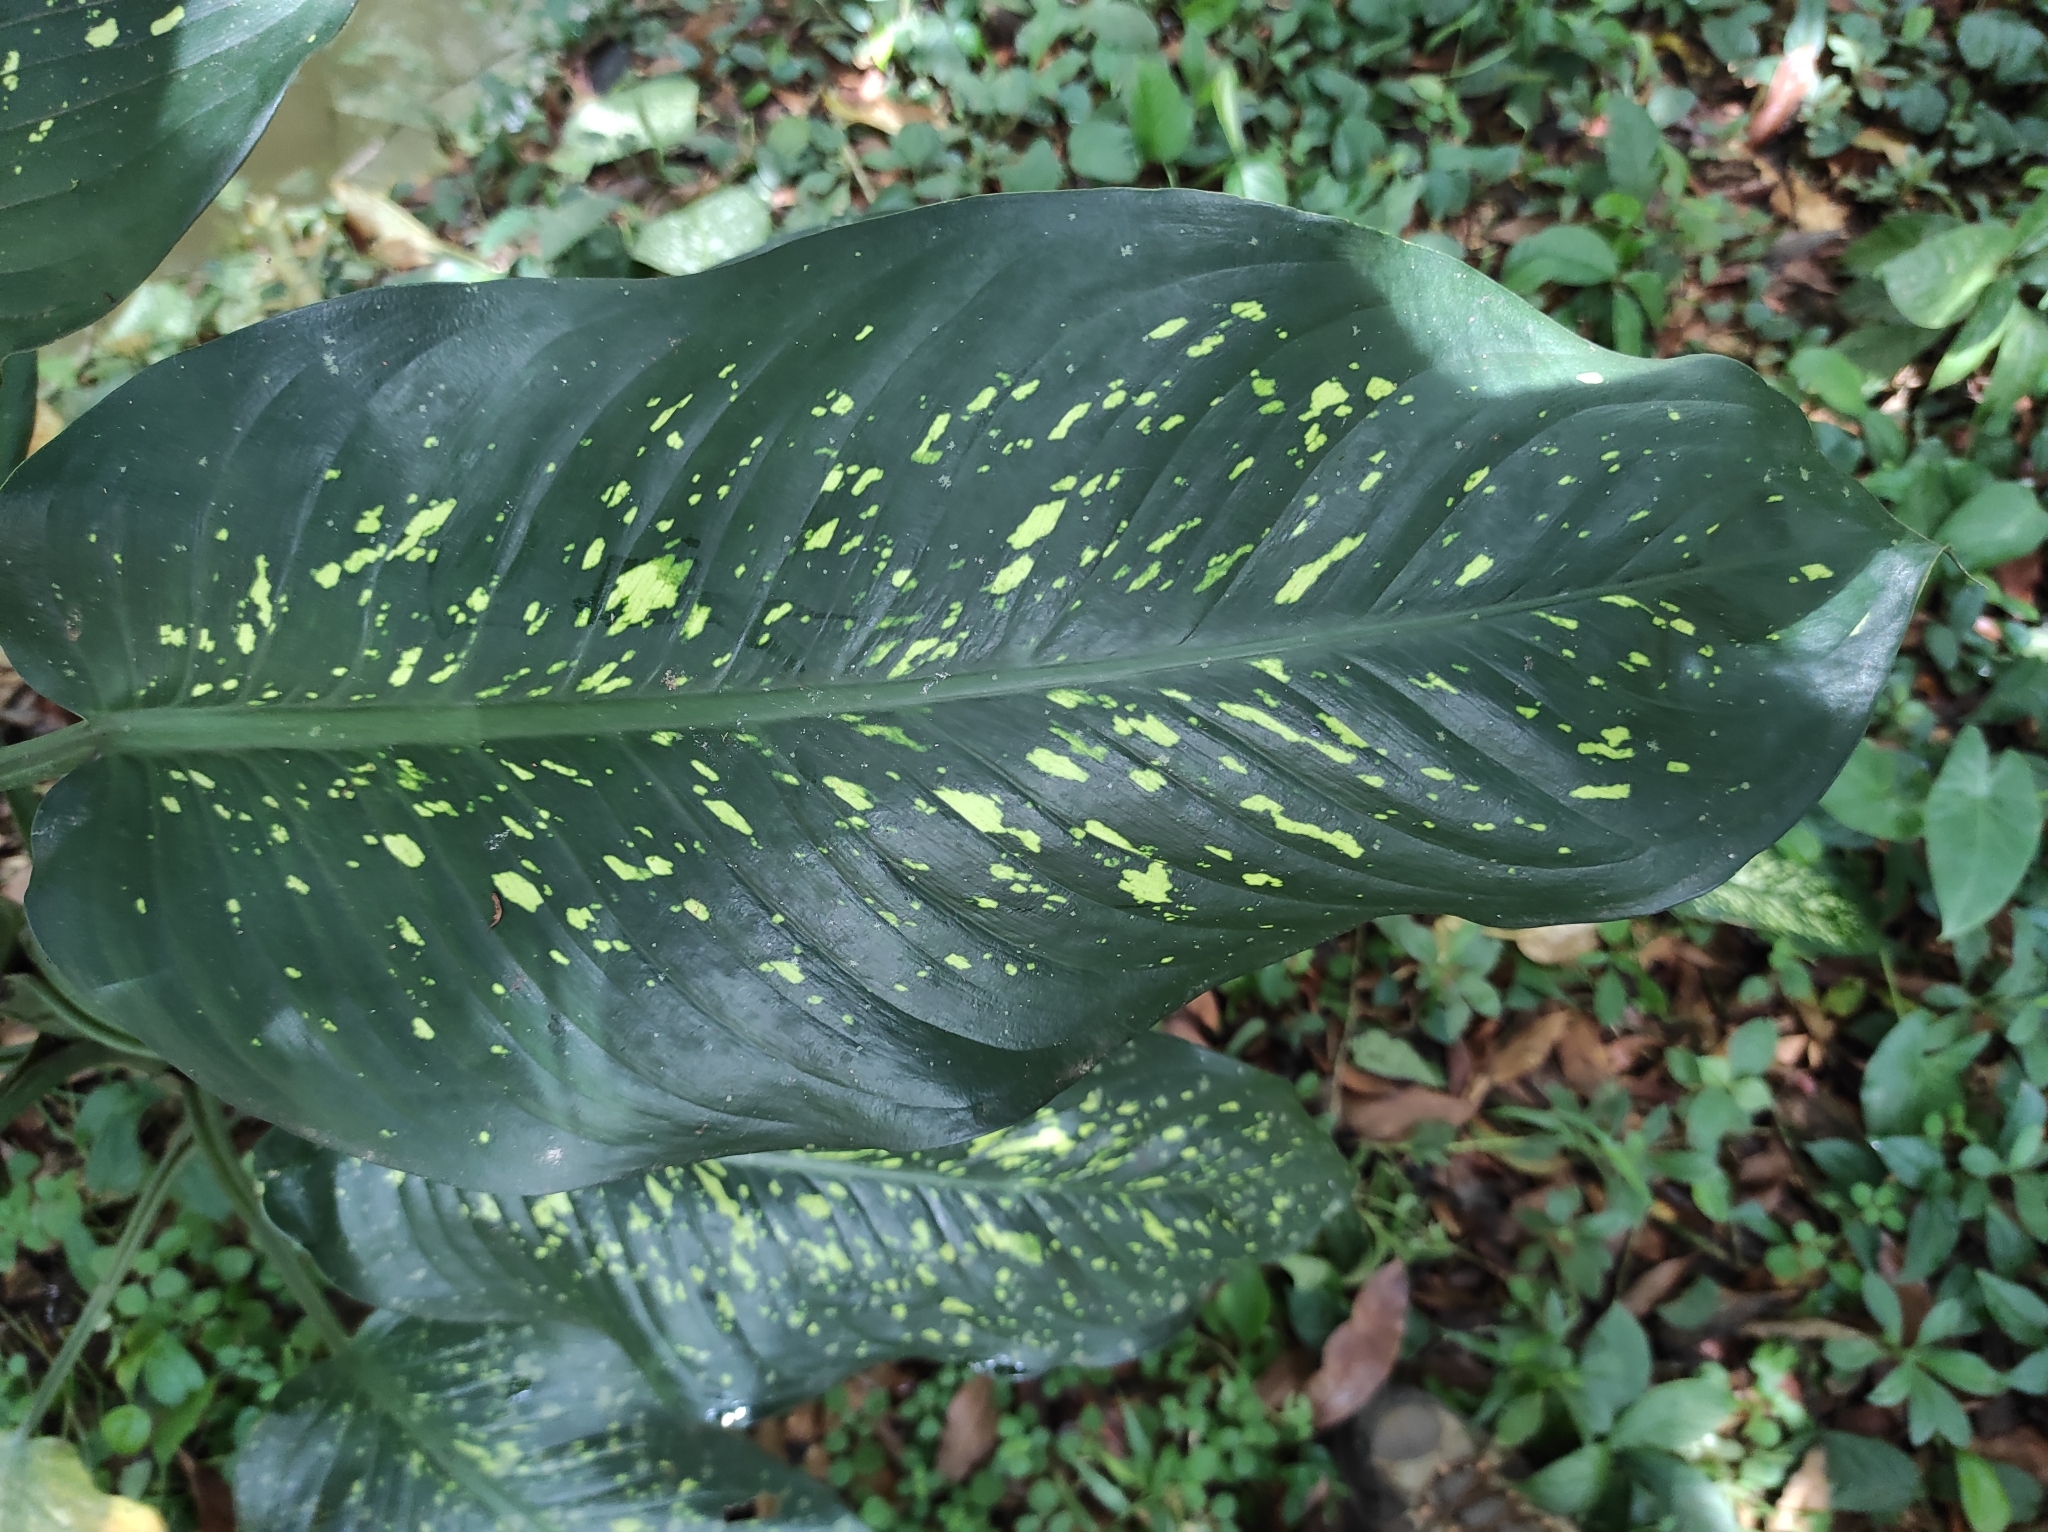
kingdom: Plantae
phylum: Tracheophyta
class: Liliopsida
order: Alismatales
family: Araceae
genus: Dieffenbachia
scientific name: Dieffenbachia seguine
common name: Dumbcane
